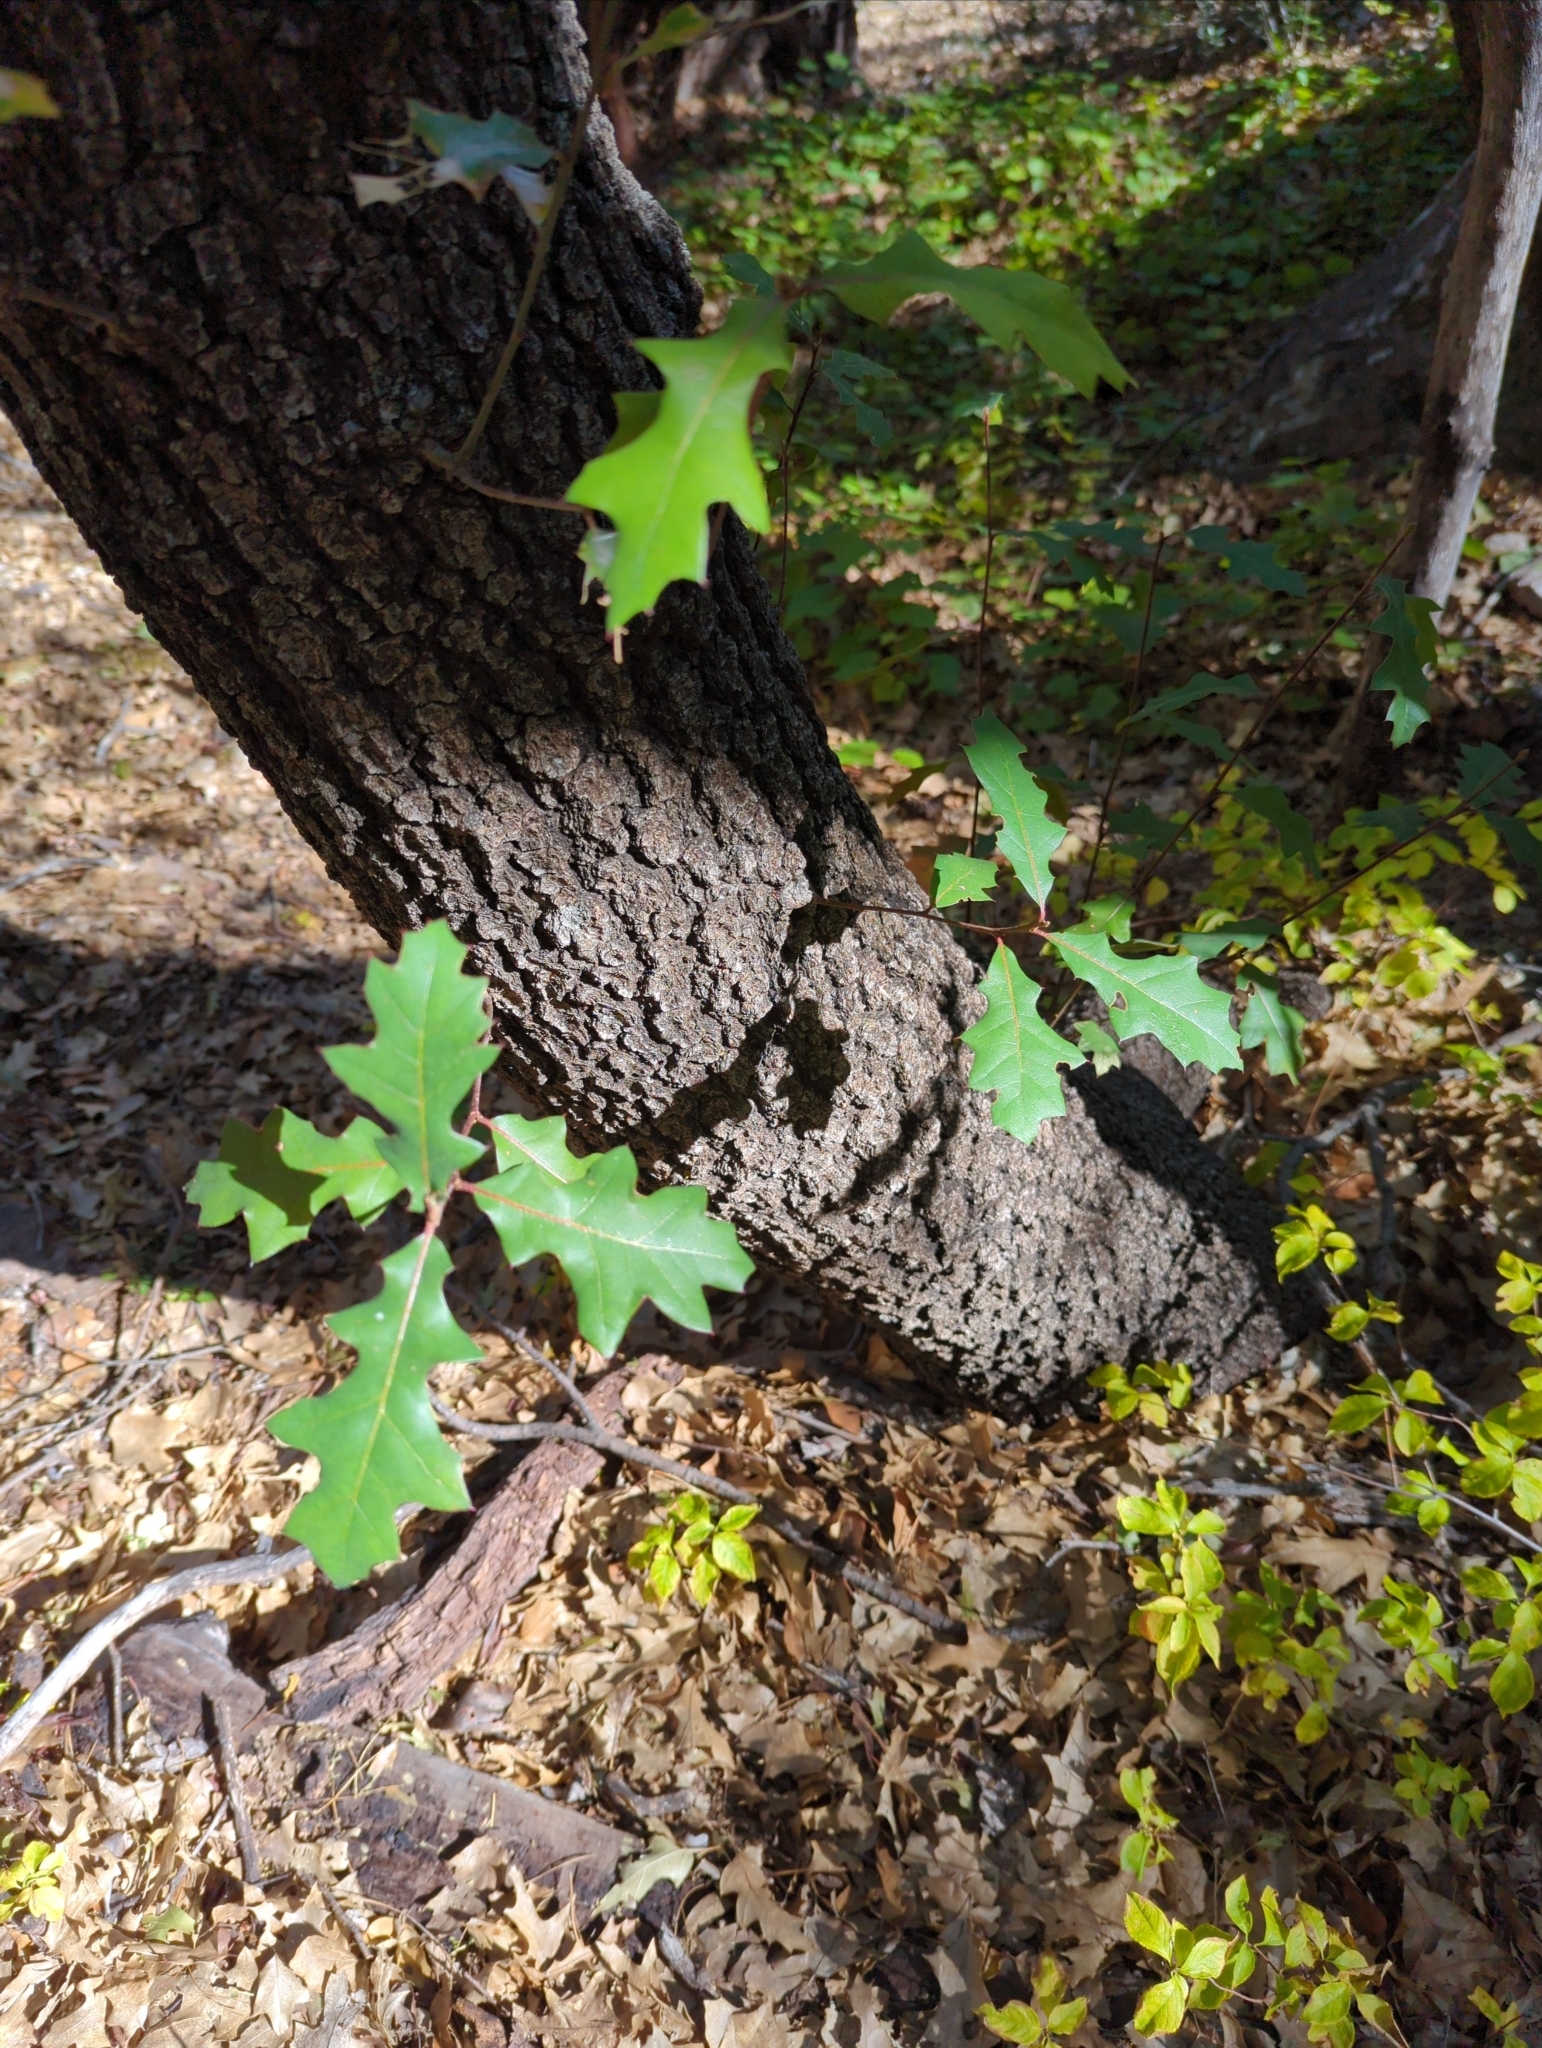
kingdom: Plantae
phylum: Tracheophyta
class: Magnoliopsida
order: Fagales
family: Fagaceae
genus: Quercus
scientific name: Quercus gravesii
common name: Chisos red oak
